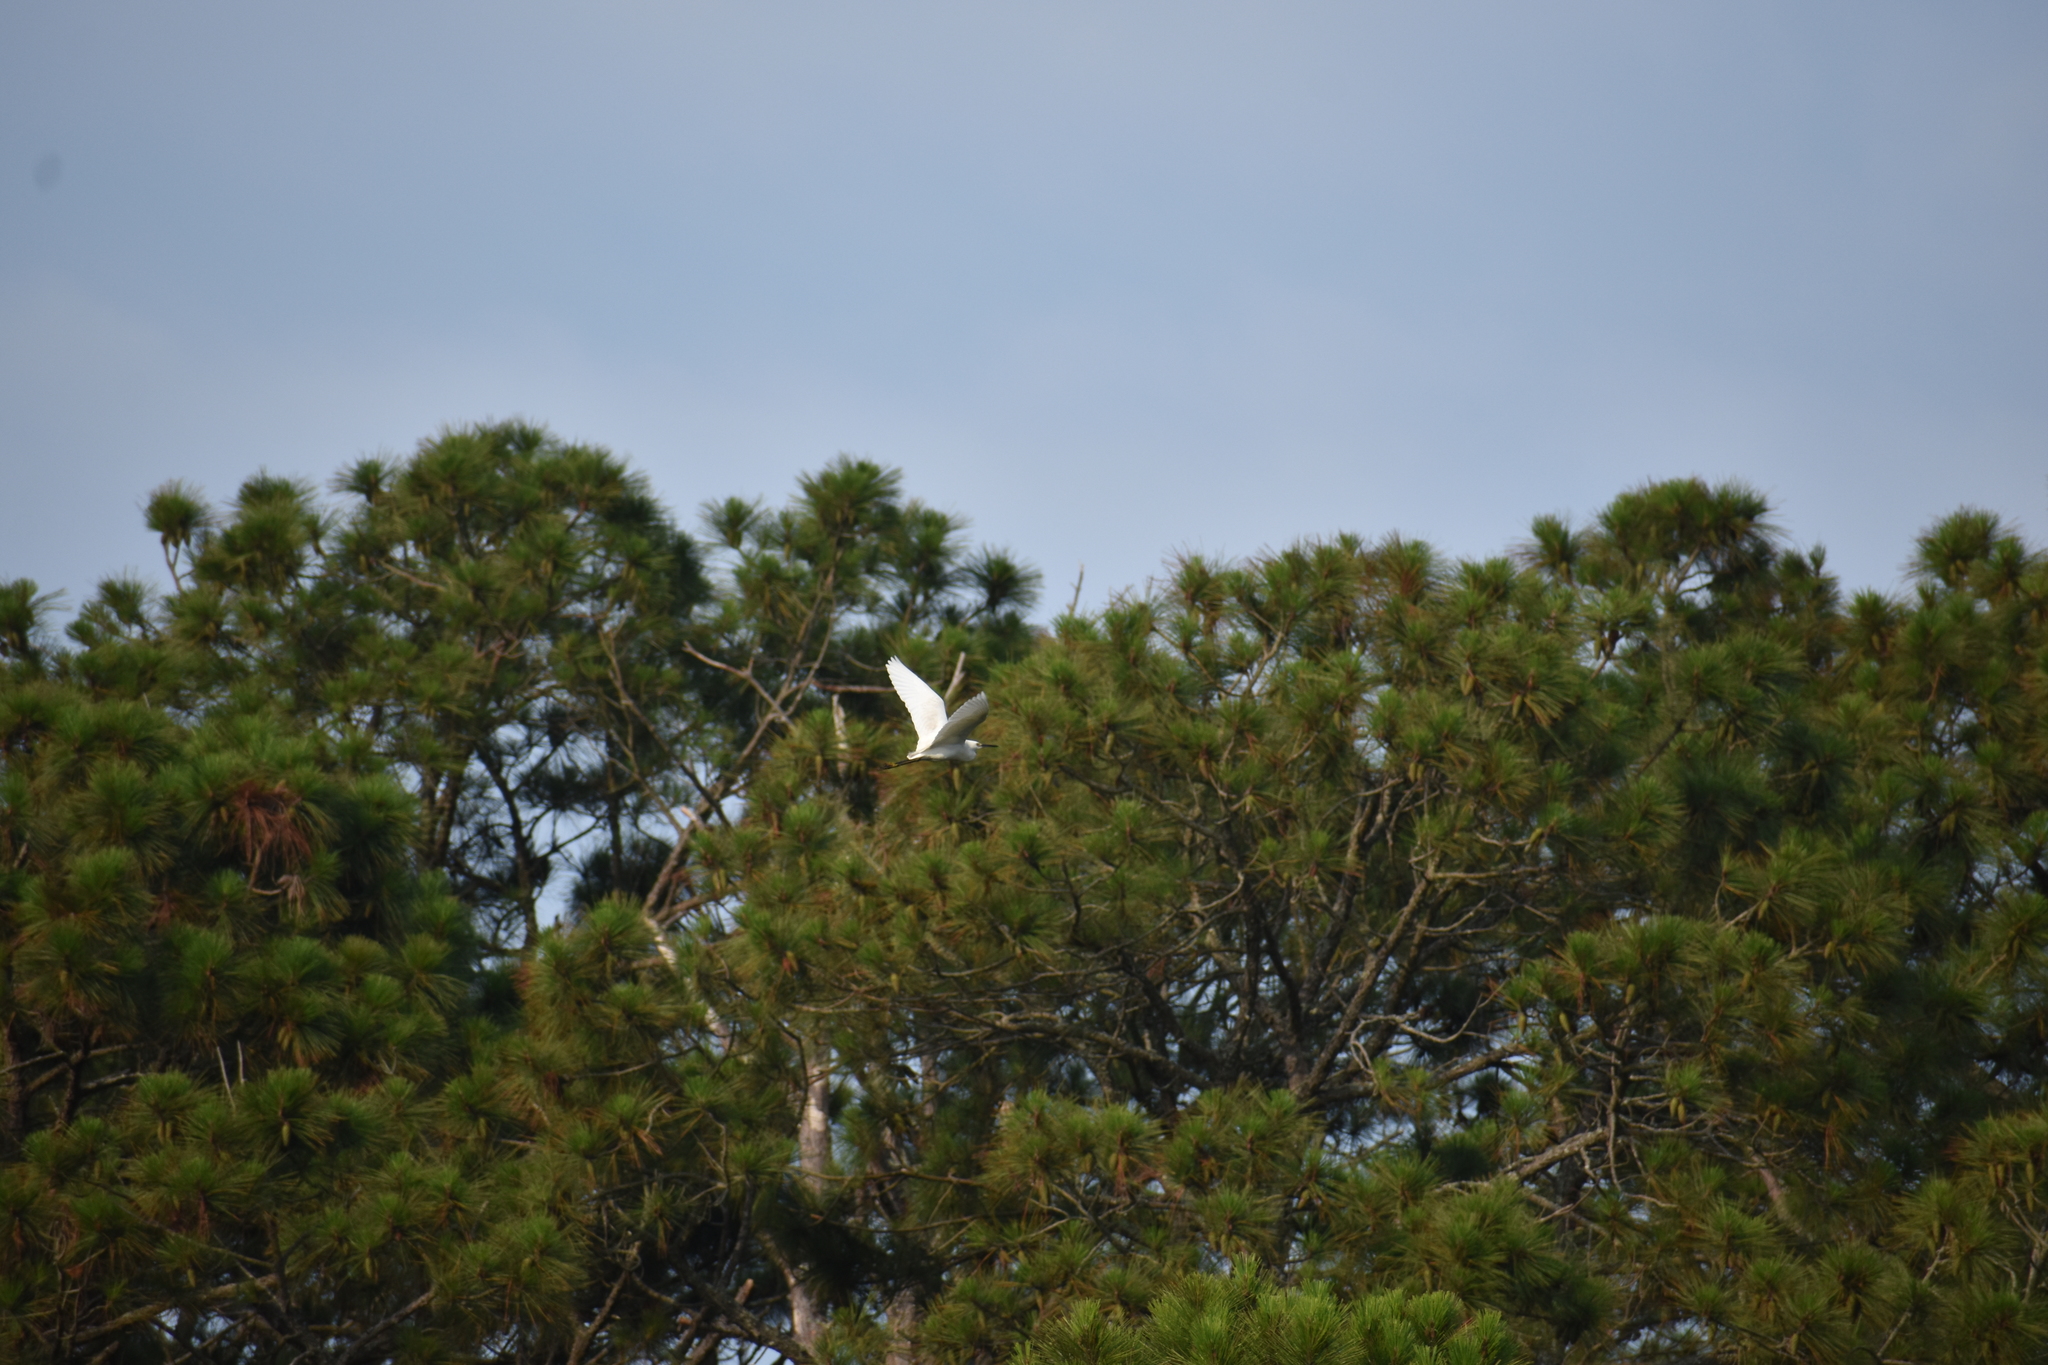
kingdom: Animalia
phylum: Chordata
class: Aves
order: Pelecaniformes
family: Ardeidae
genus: Egretta
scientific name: Egretta thula
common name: Snowy egret
